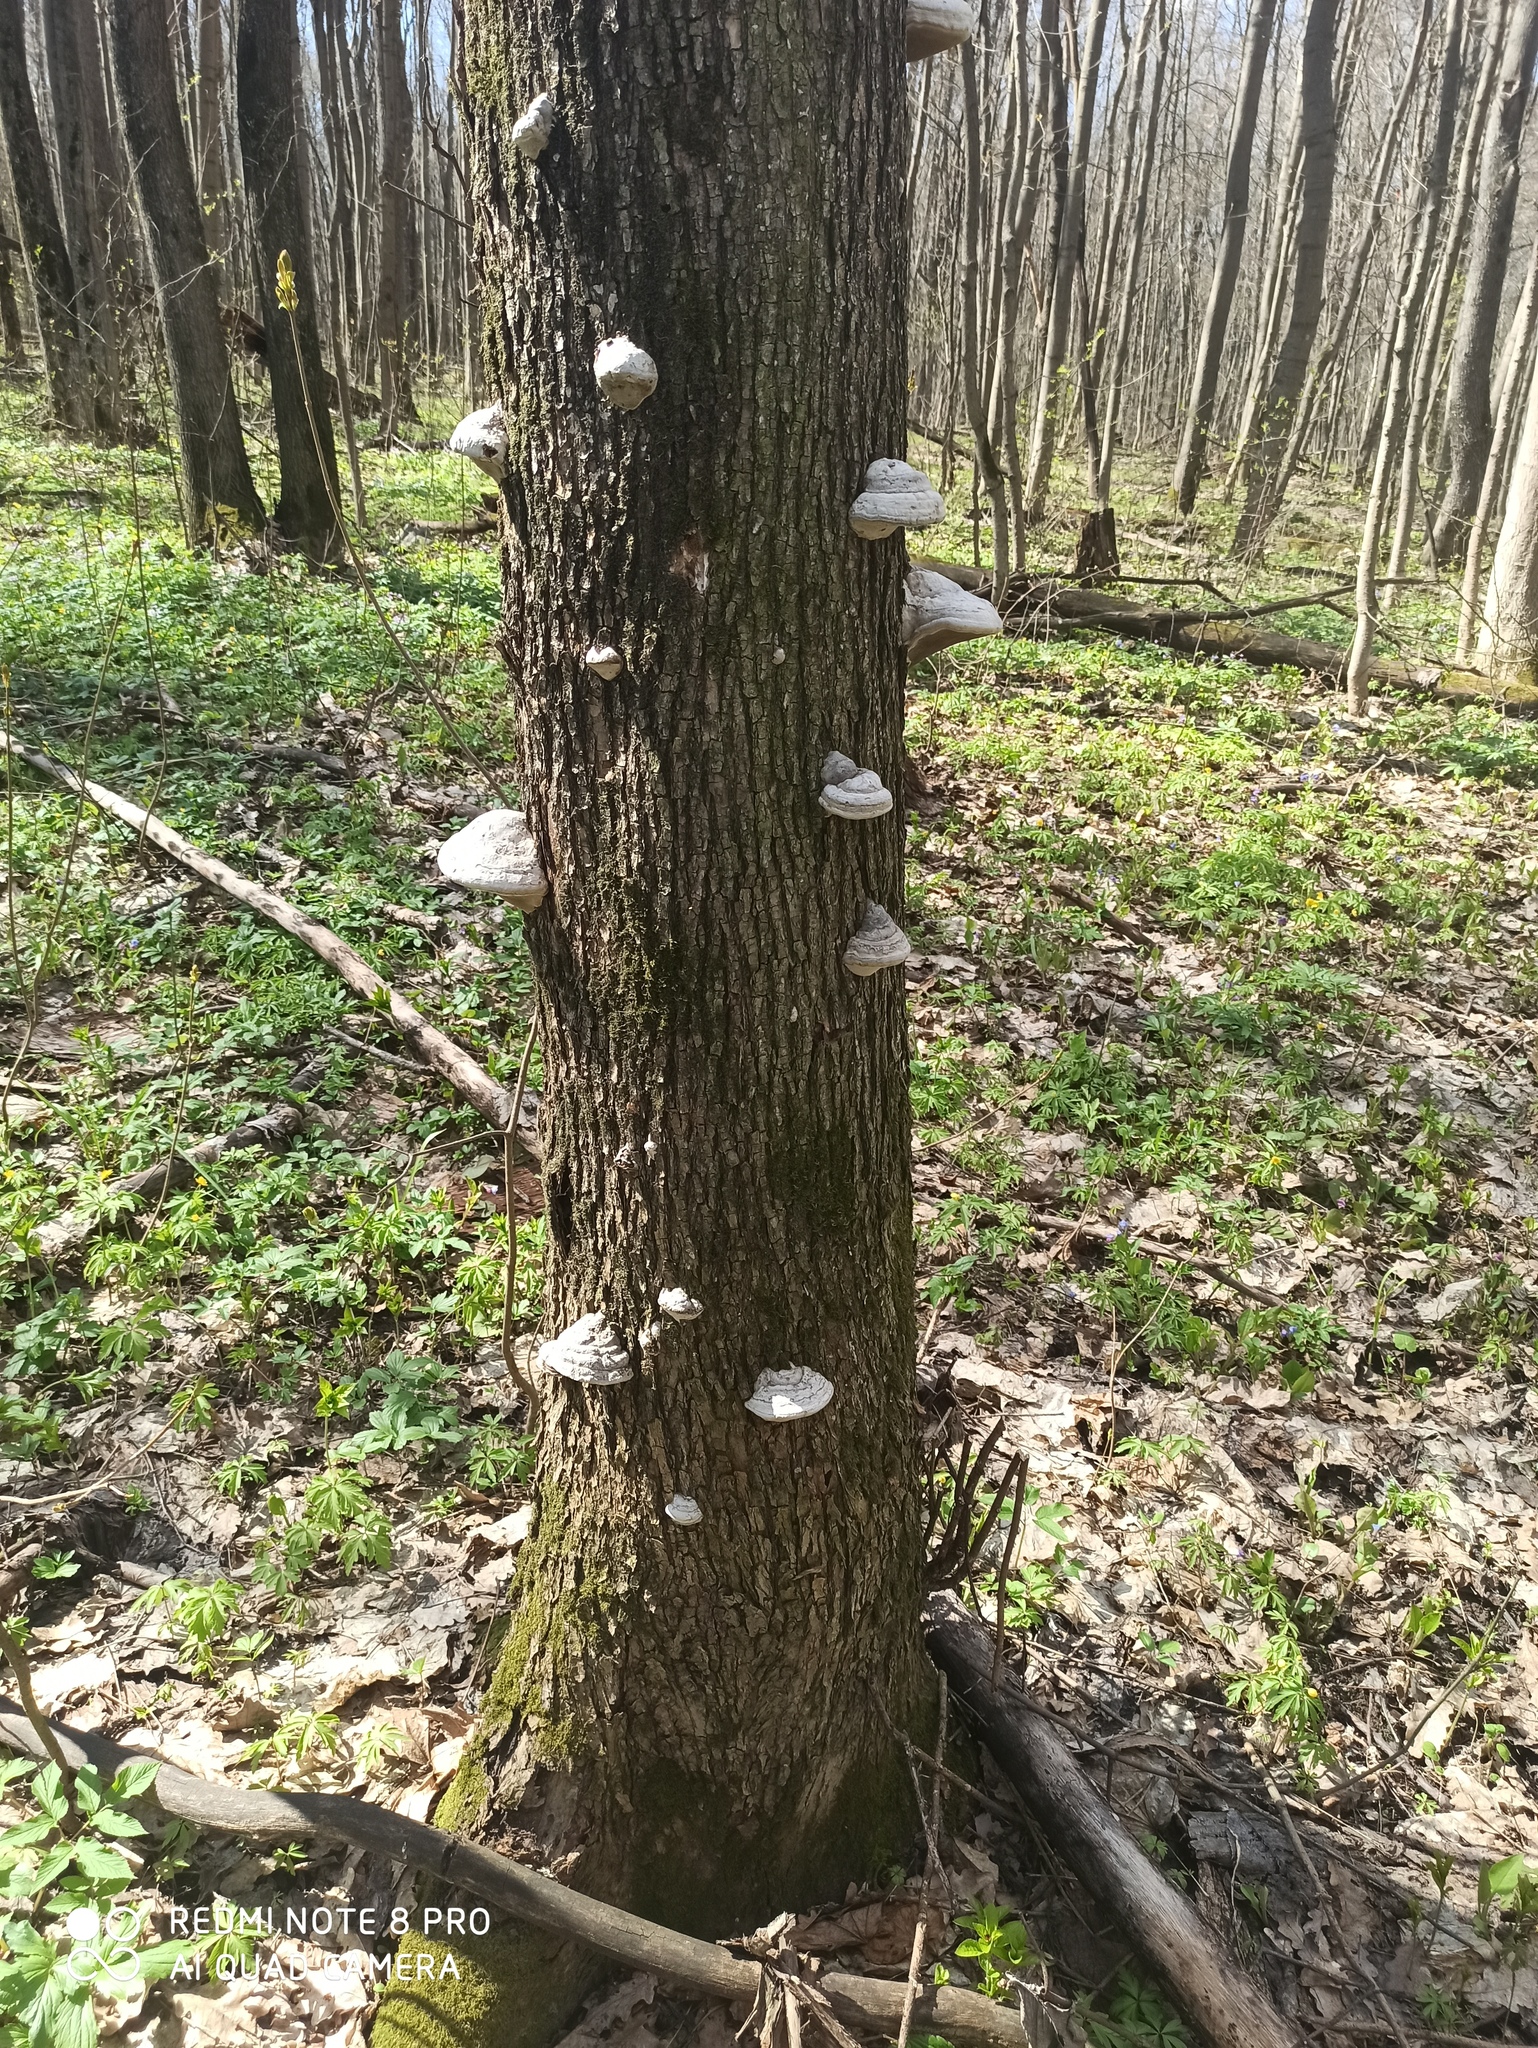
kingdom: Fungi
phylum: Basidiomycota
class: Agaricomycetes
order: Polyporales
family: Polyporaceae
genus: Fomes
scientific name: Fomes fomentarius
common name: Hoof fungus
